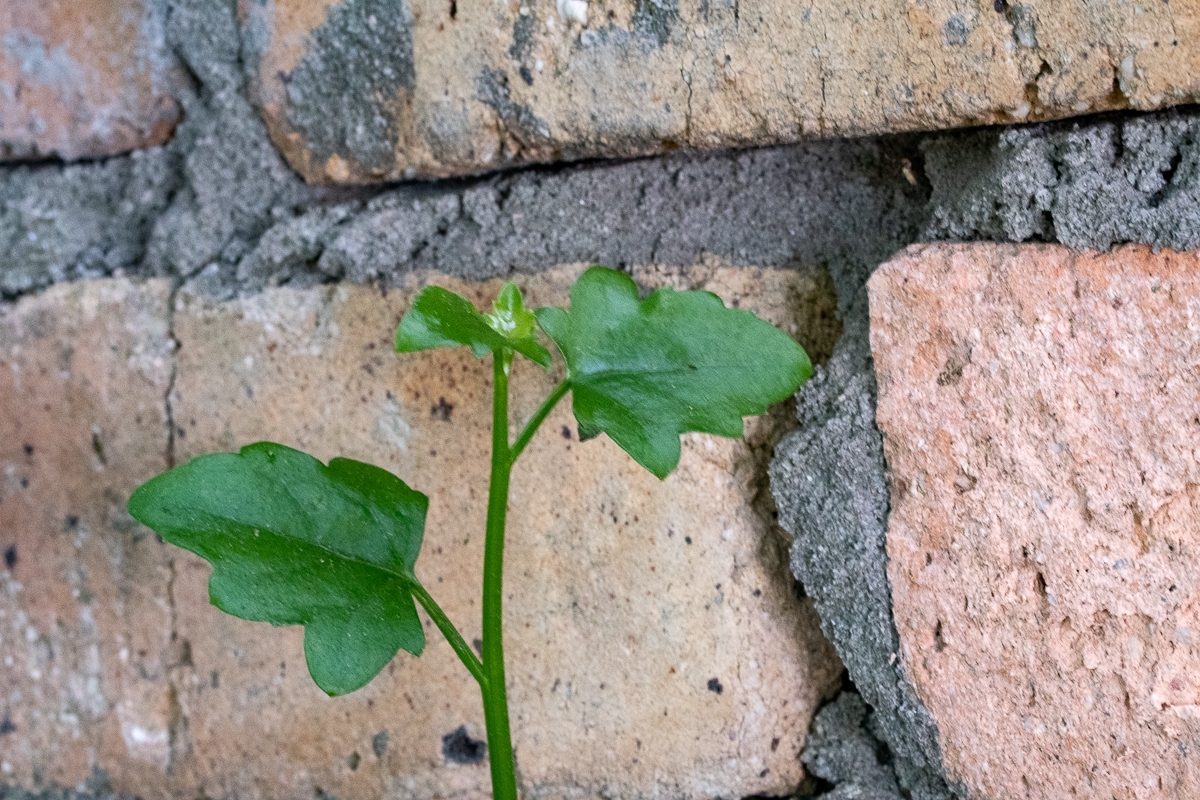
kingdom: Plantae
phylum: Tracheophyta
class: Magnoliopsida
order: Asterales
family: Asteraceae
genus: Senecio
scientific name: Senecio angulatus
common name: Climbing groundsel
